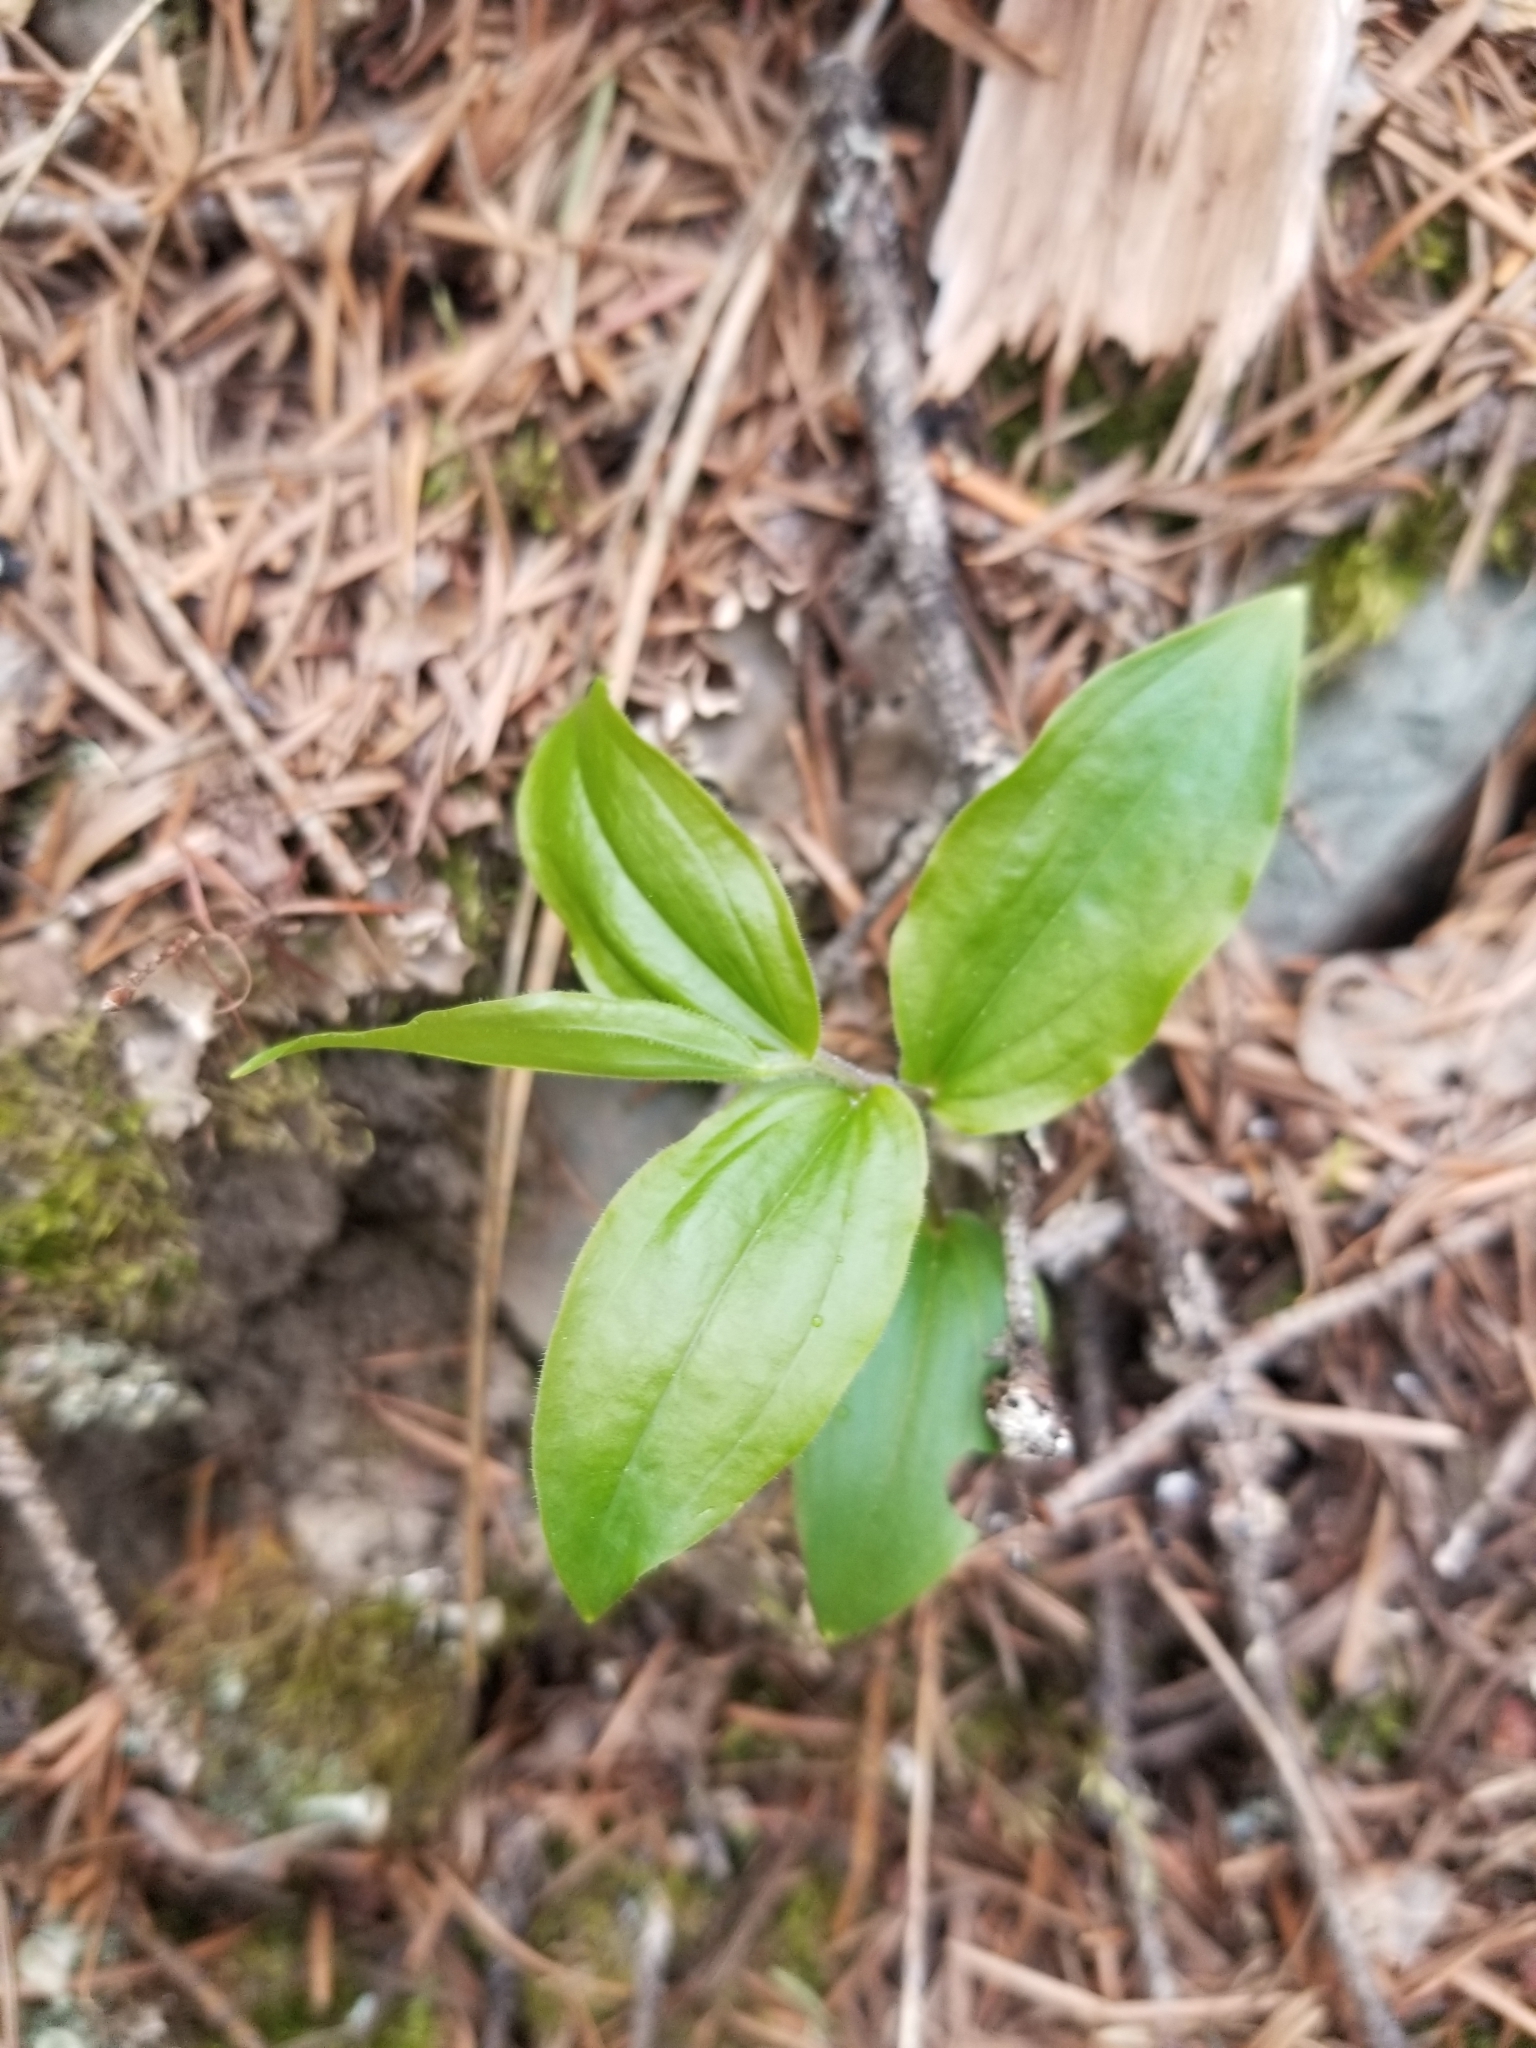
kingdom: Plantae
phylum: Tracheophyta
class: Liliopsida
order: Liliales
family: Liliaceae
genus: Prosartes
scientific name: Prosartes trachycarpa
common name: Rough-fruit fairy-bells
